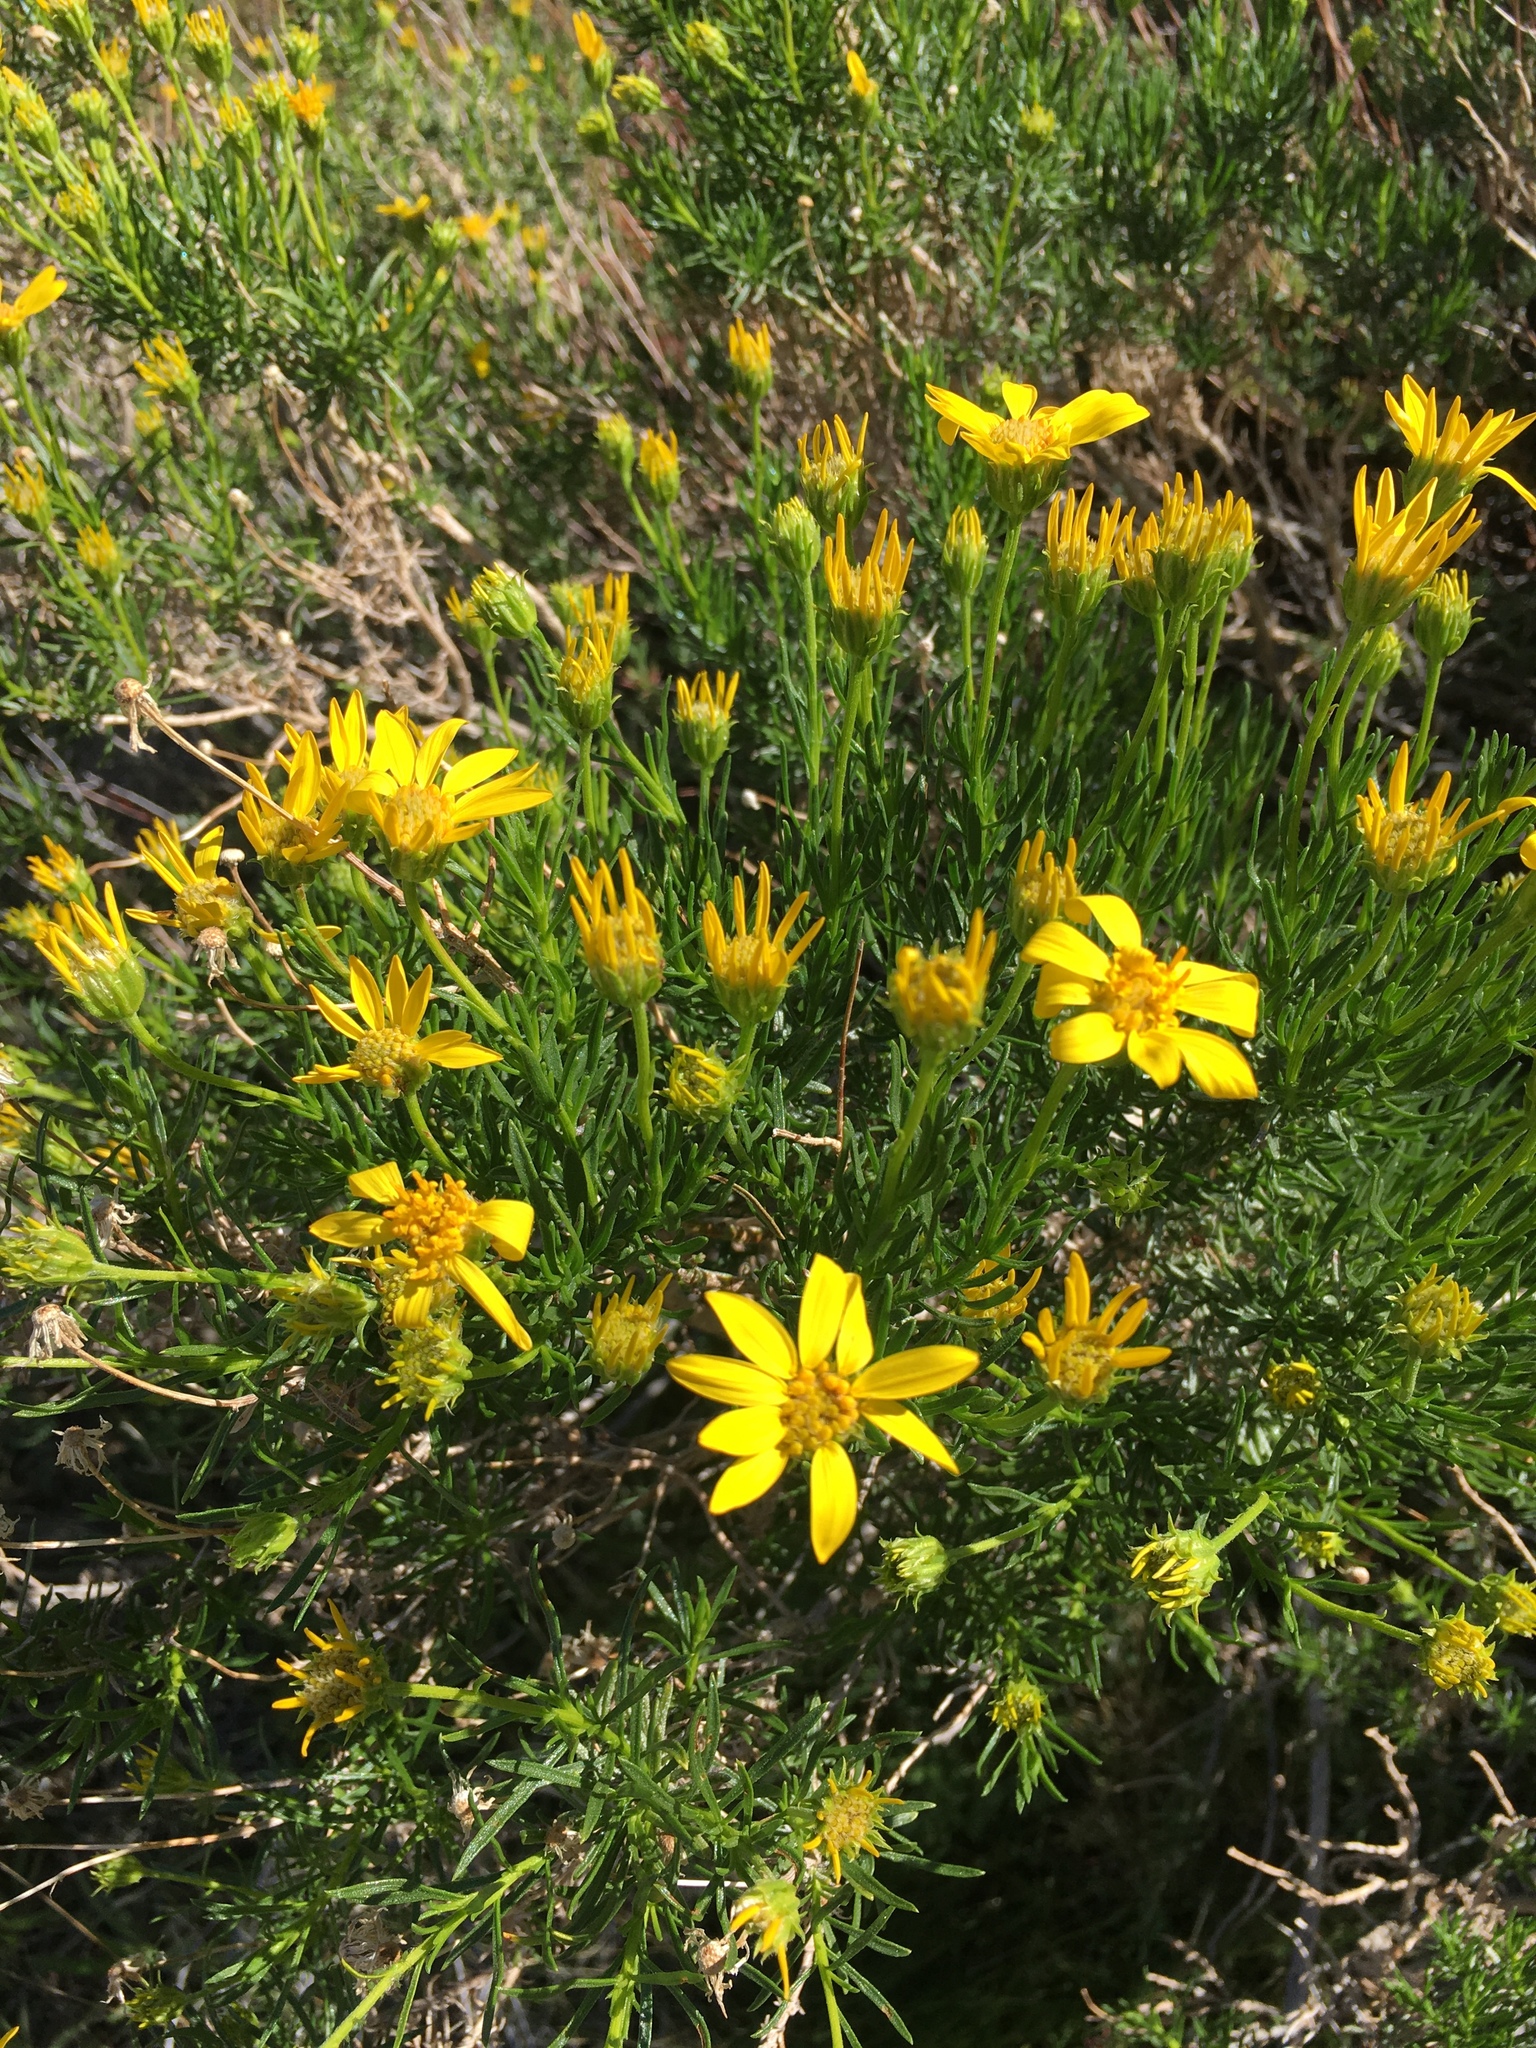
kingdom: Plantae
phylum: Tracheophyta
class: Magnoliopsida
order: Asterales
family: Asteraceae
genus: Ericameria
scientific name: Ericameria linearifolia
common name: Interior goldenbush
